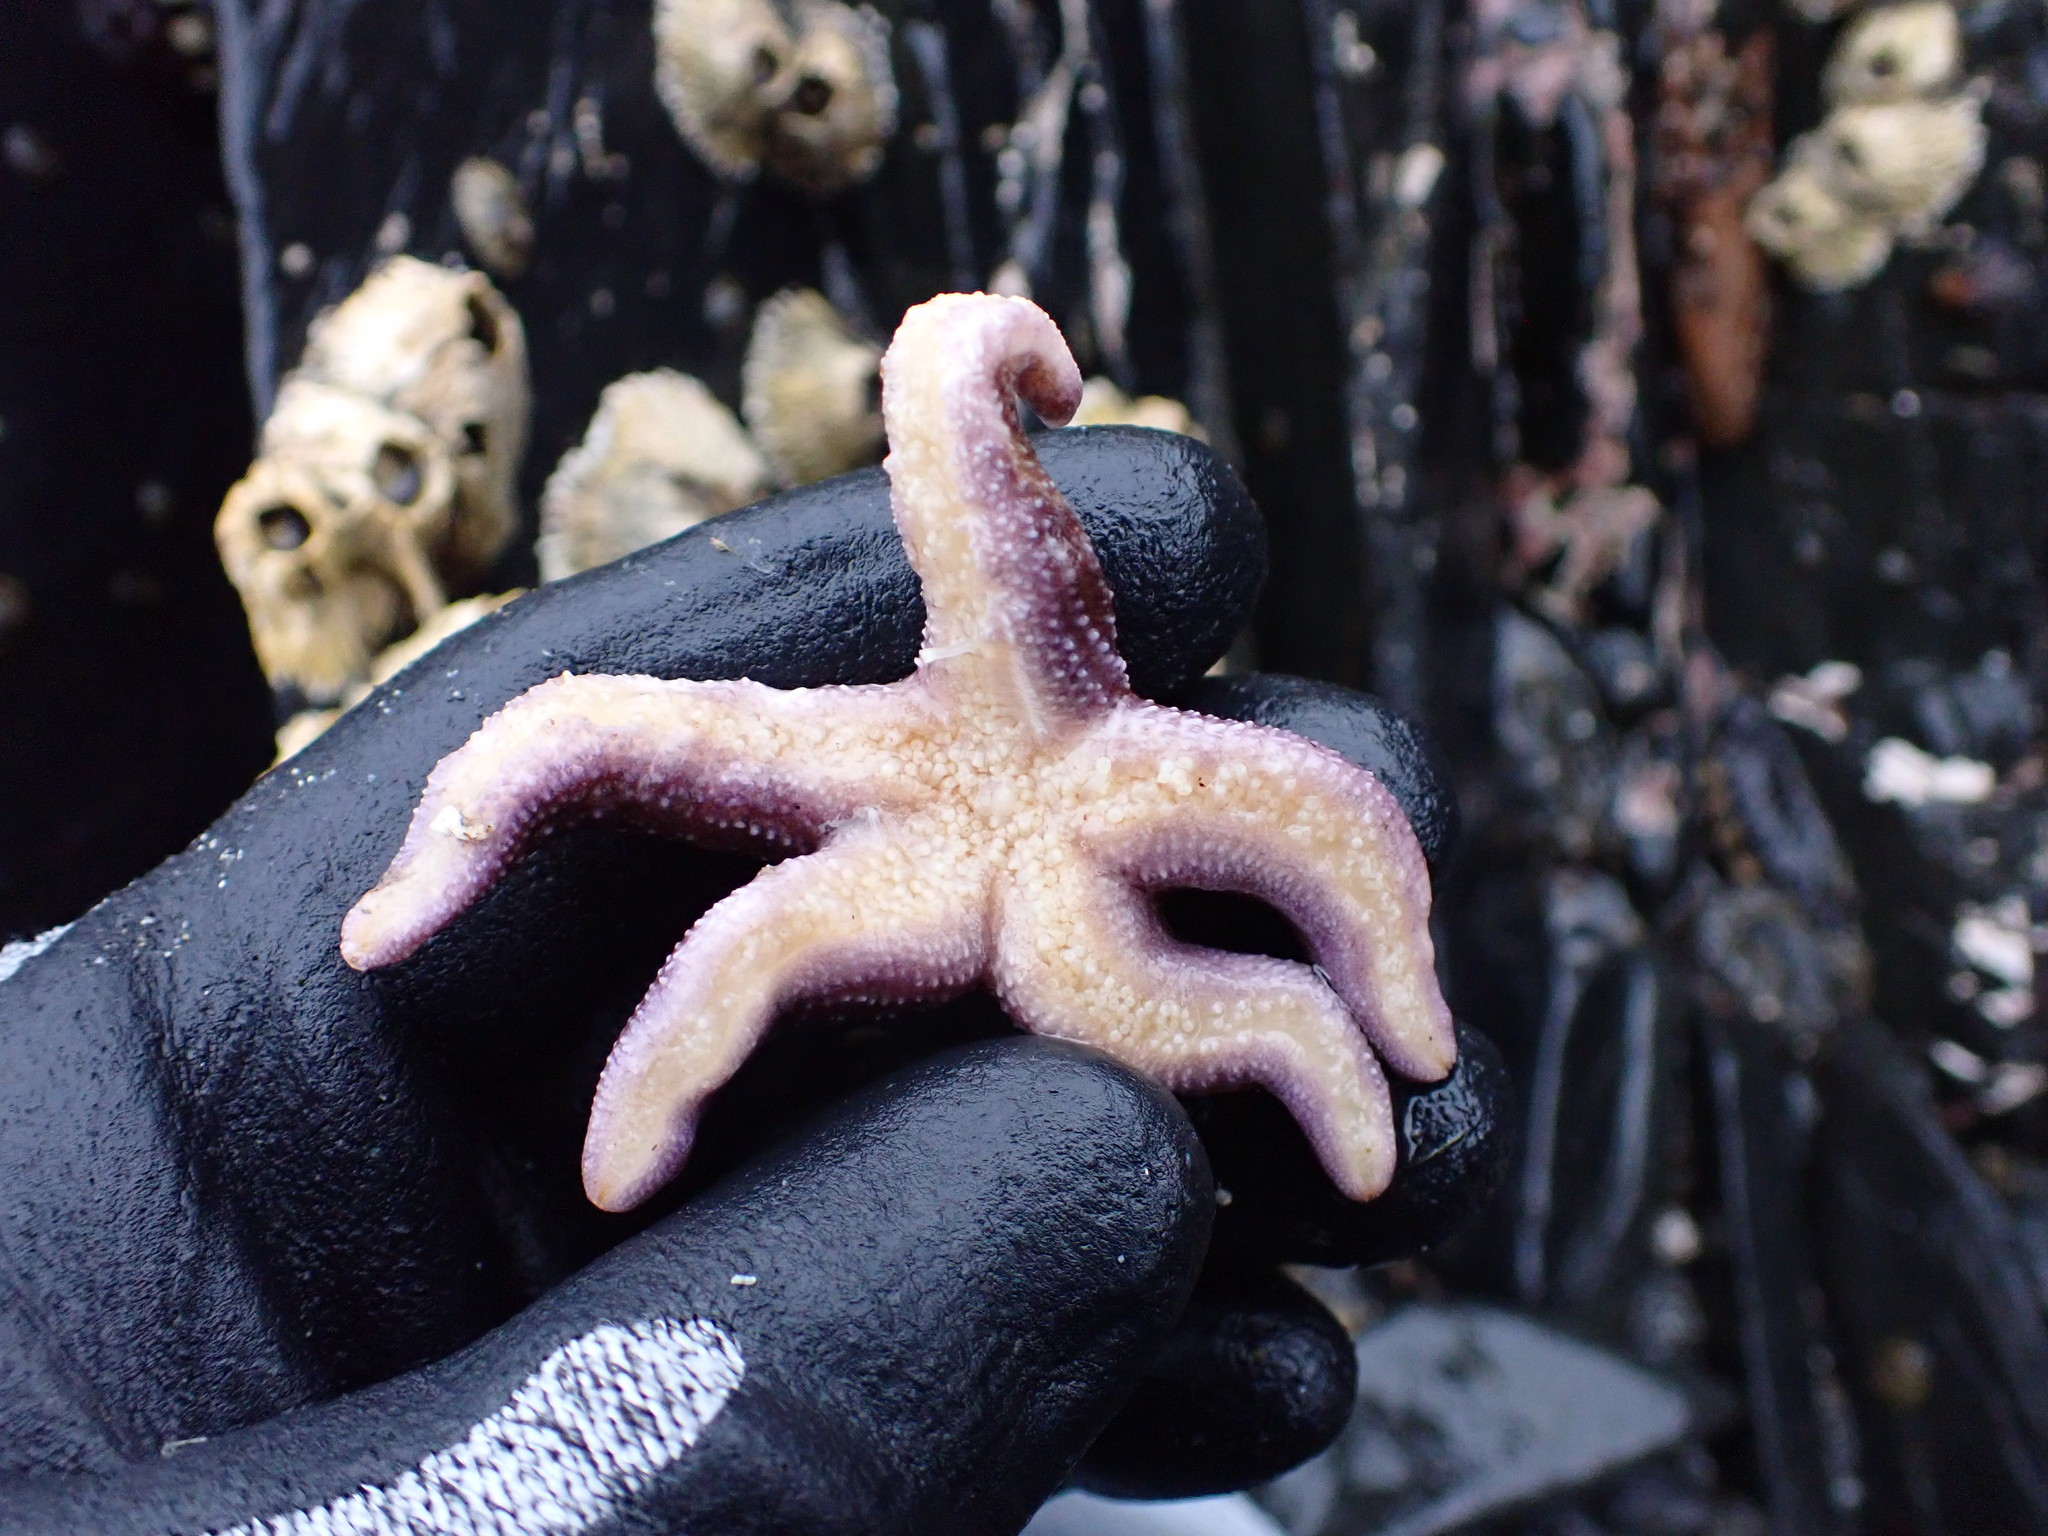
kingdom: Animalia
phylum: Echinodermata
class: Asteroidea
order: Forcipulatida
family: Asteriidae
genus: Evasterias
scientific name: Evasterias troschelii
